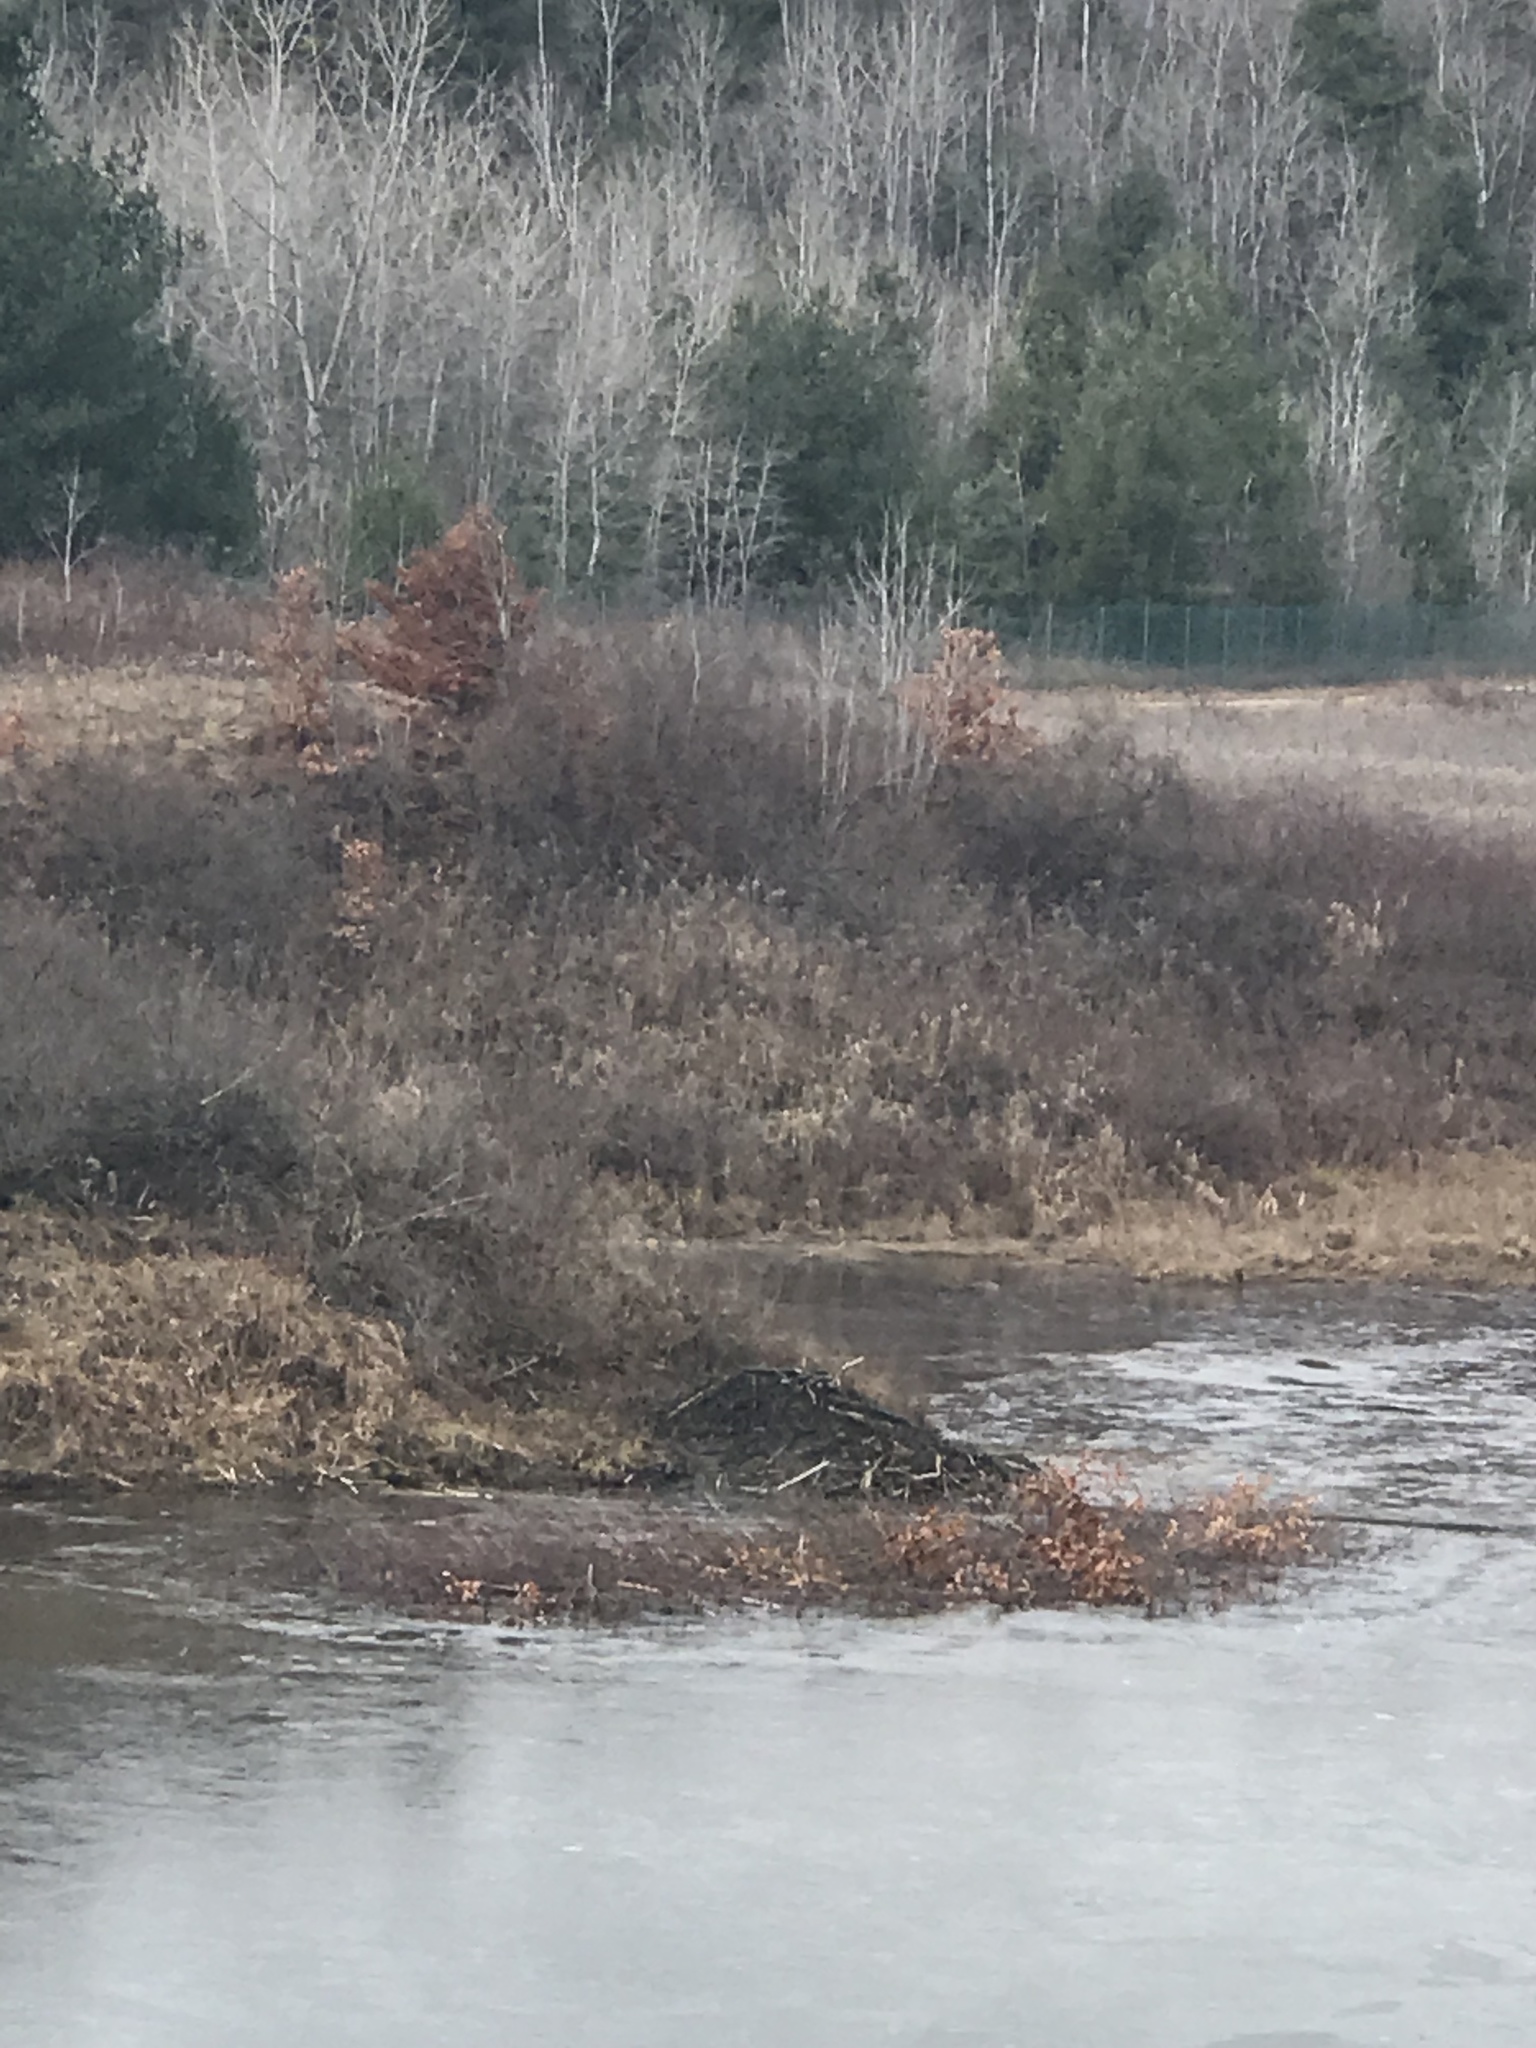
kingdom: Animalia
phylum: Chordata
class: Mammalia
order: Rodentia
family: Castoridae
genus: Castor
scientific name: Castor canadensis
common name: American beaver
